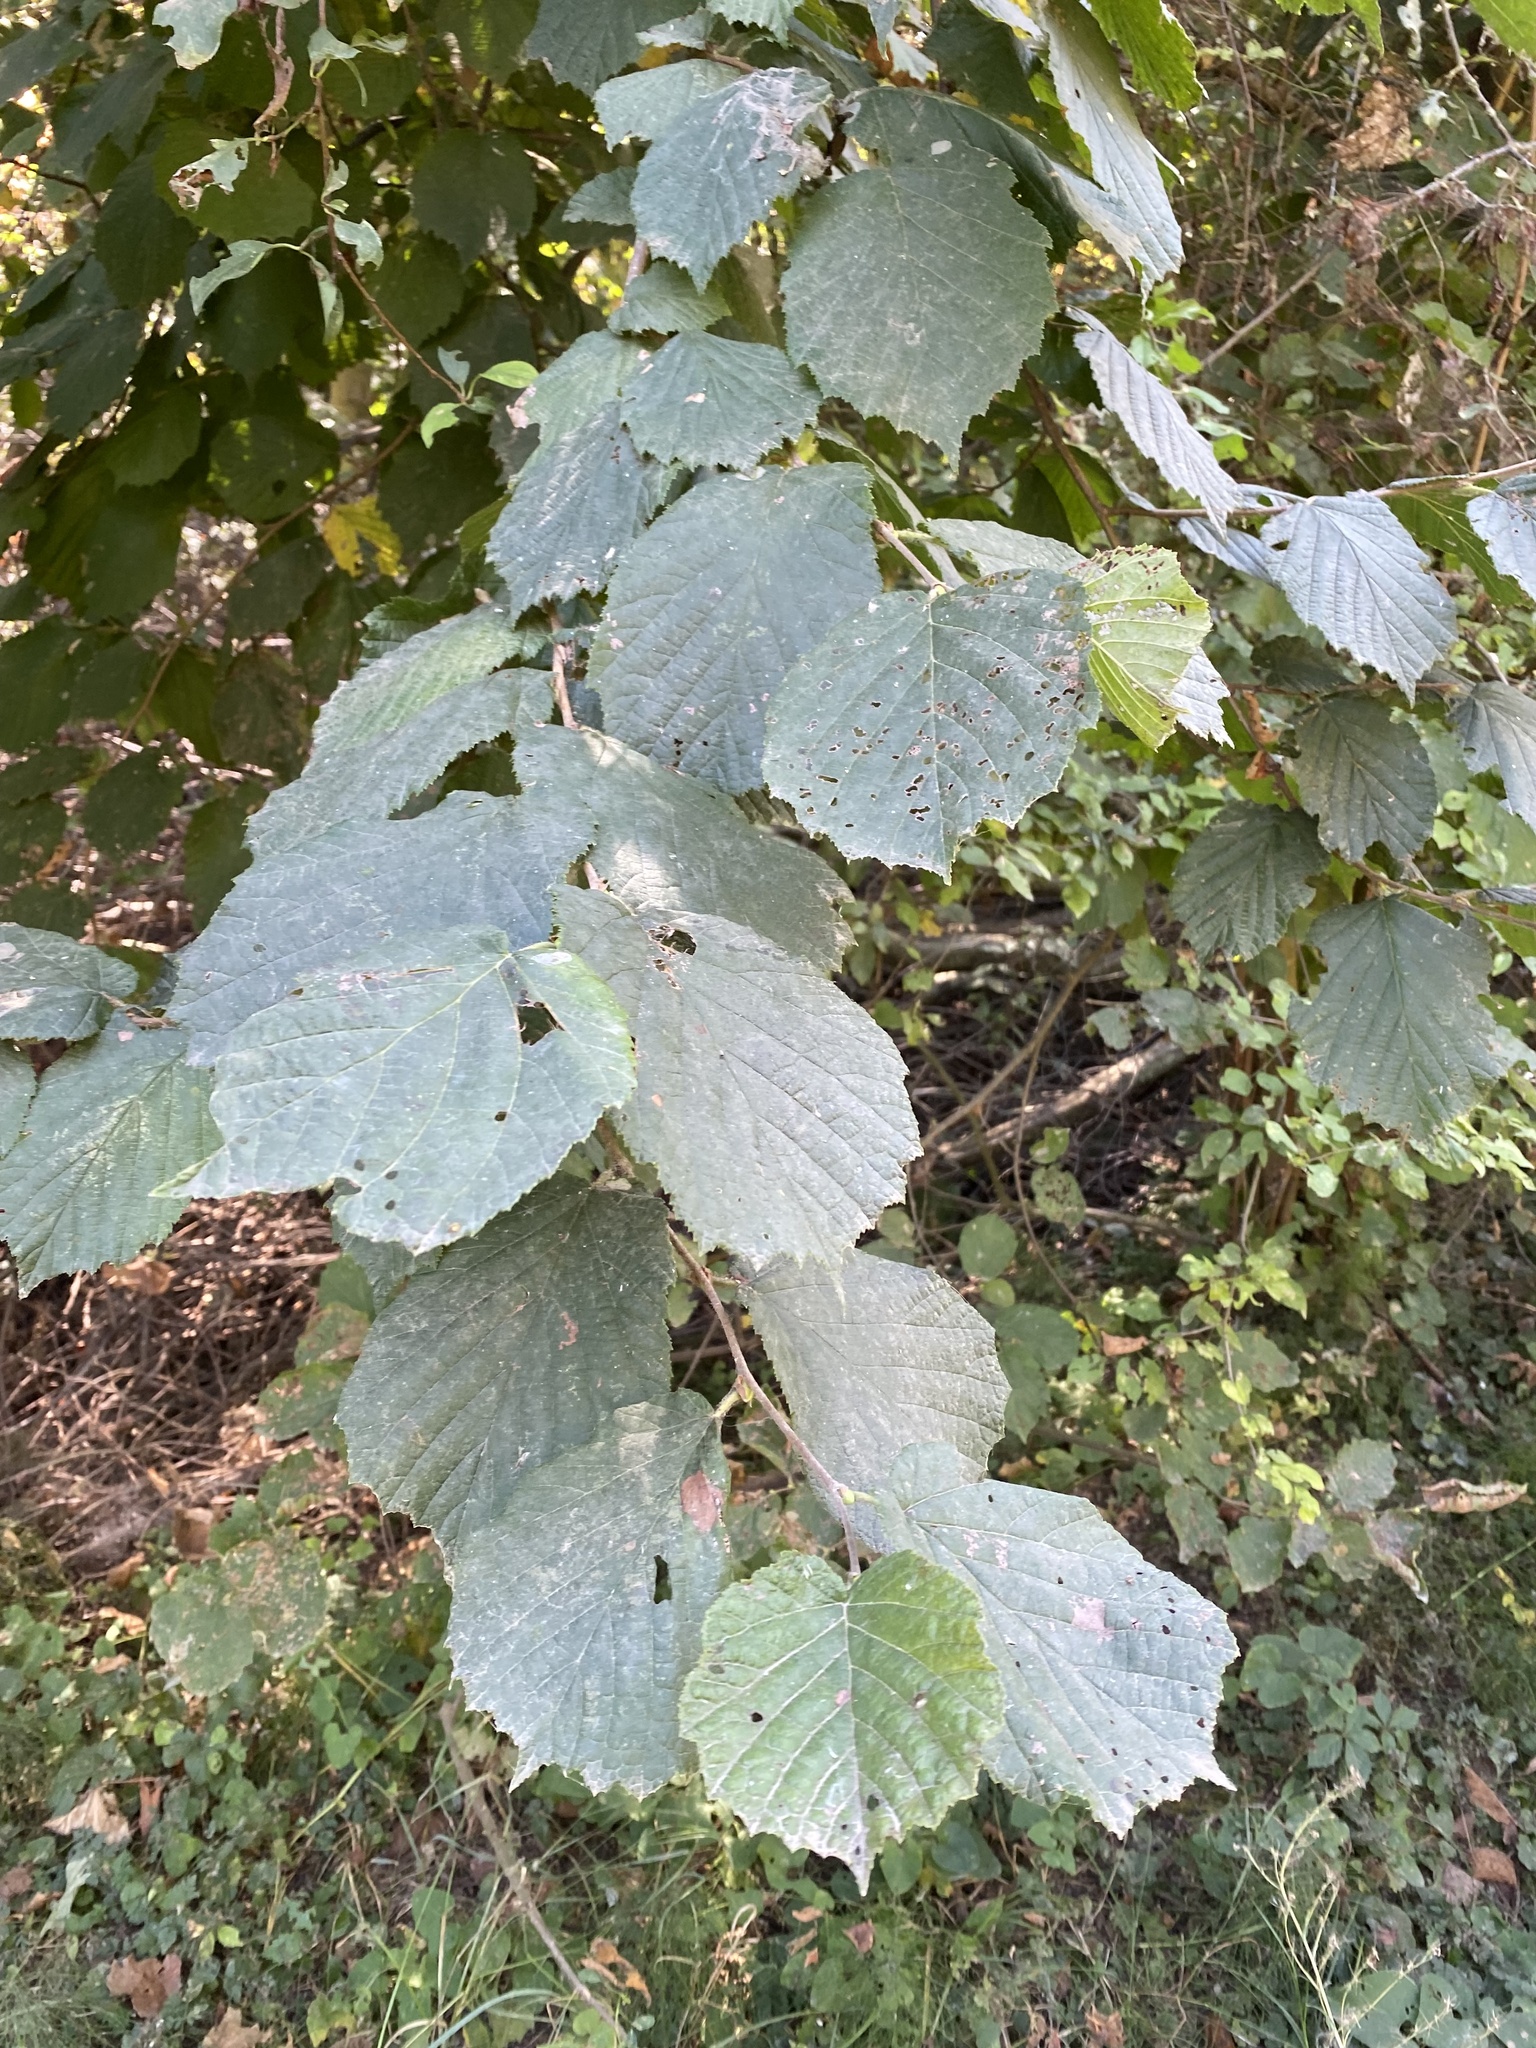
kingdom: Plantae
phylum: Tracheophyta
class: Magnoliopsida
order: Fagales
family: Betulaceae
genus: Corylus
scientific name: Corylus avellana
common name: European hazel
